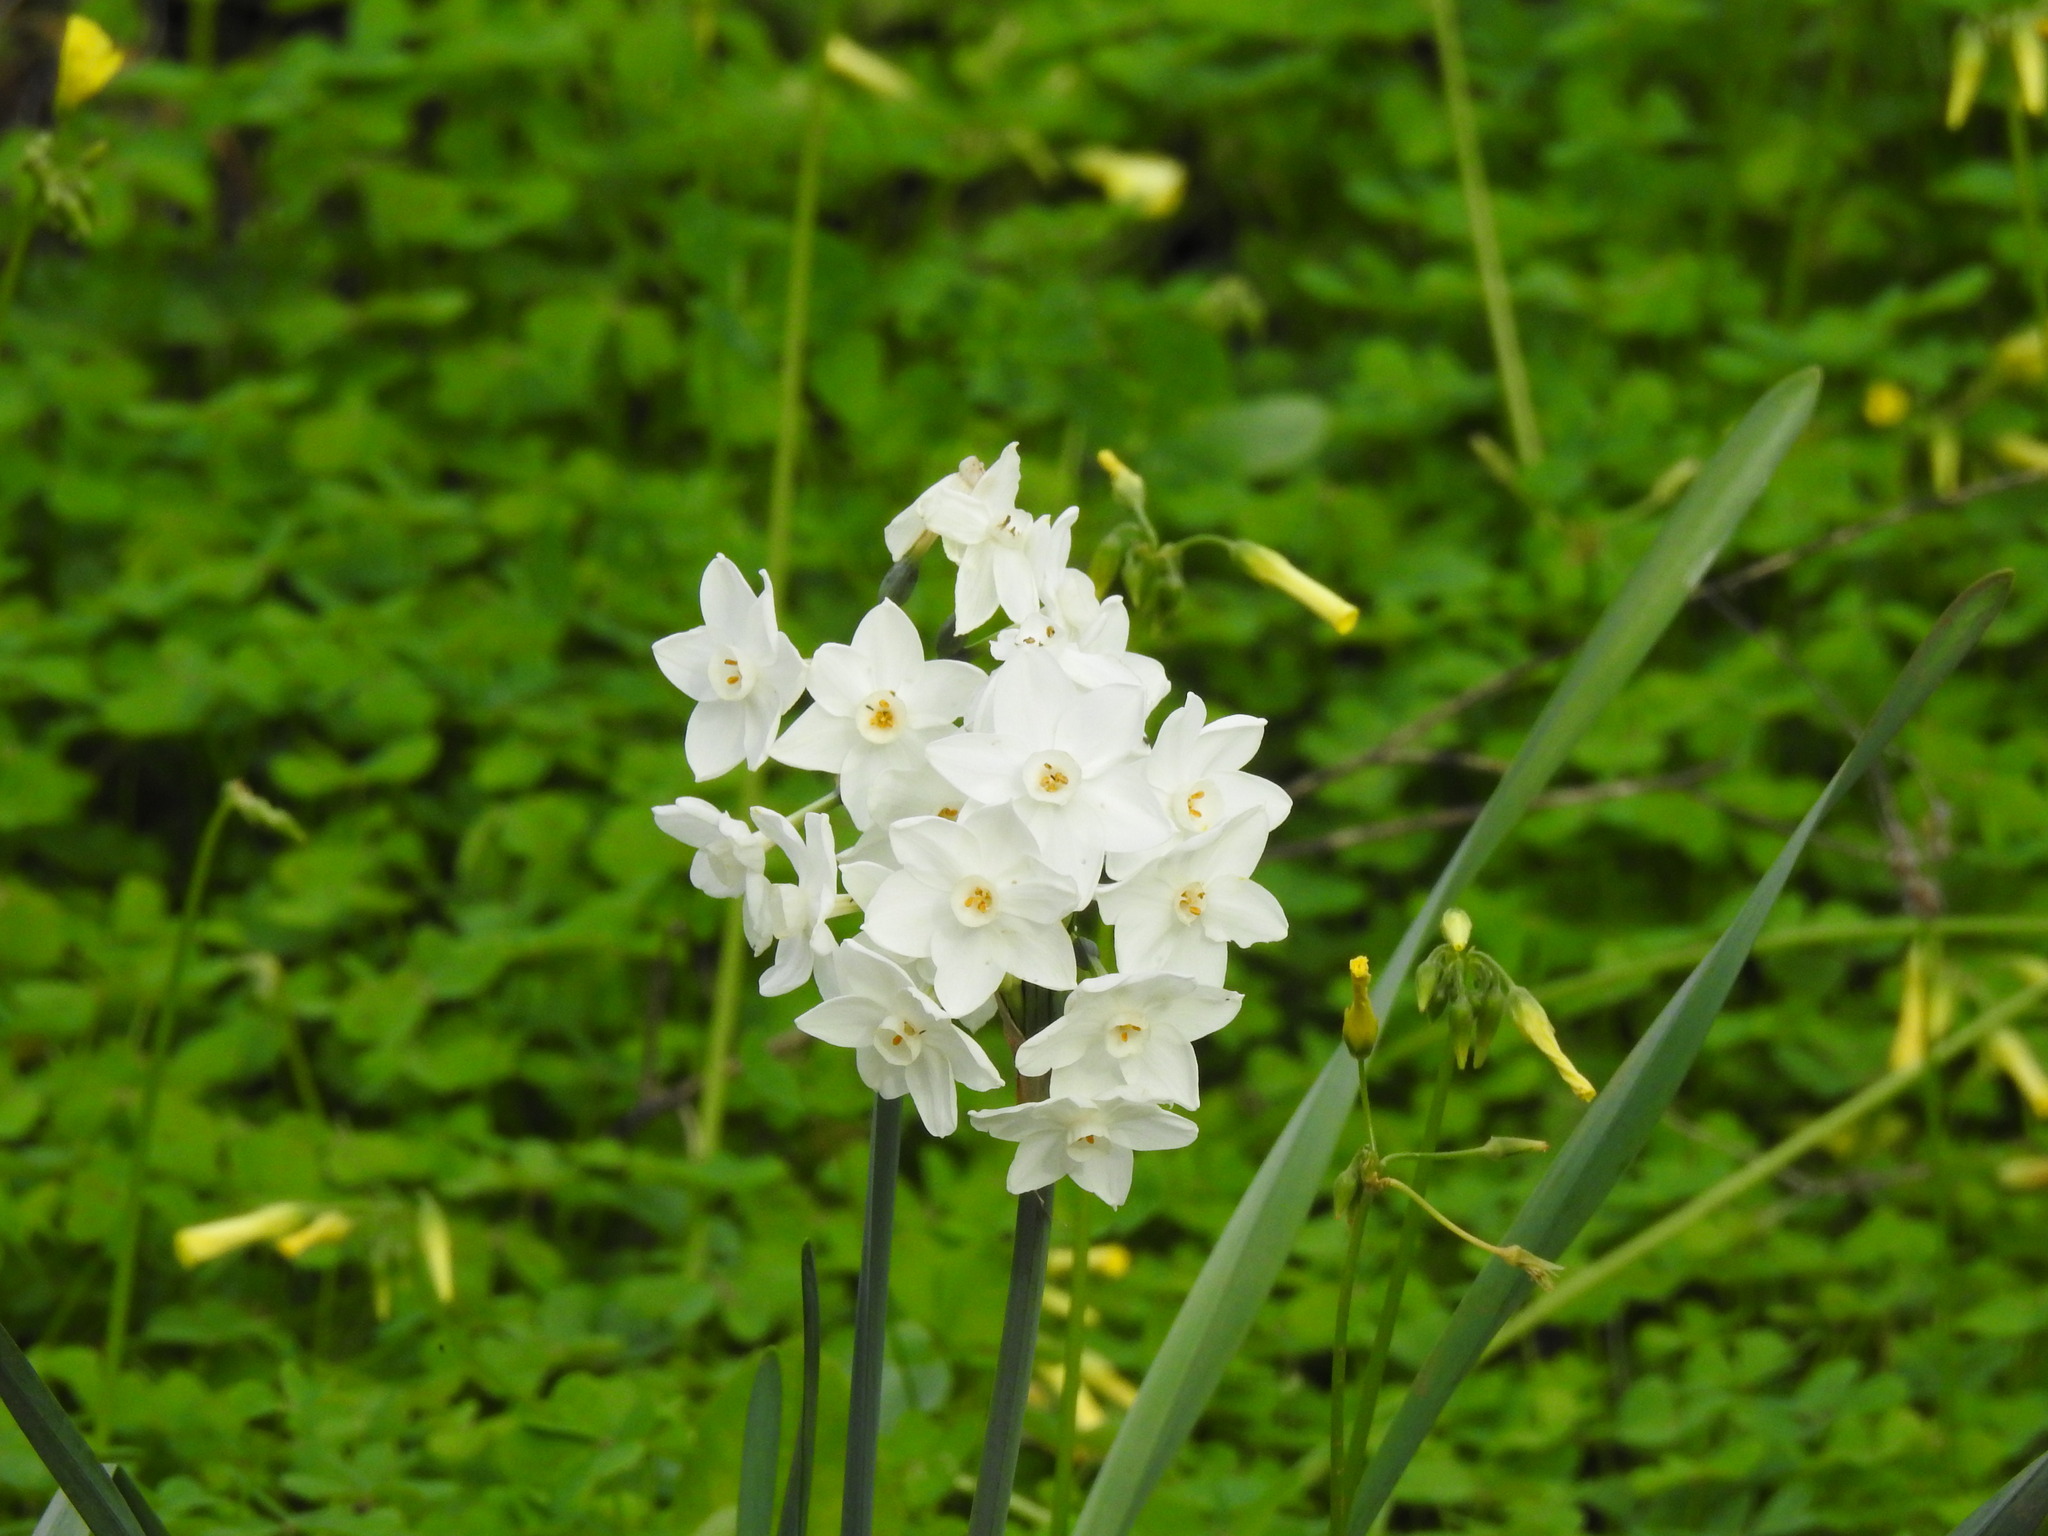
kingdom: Plantae
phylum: Tracheophyta
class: Liliopsida
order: Asparagales
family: Amaryllidaceae
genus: Narcissus
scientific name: Narcissus papyraceus
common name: Paper-white daffodil
